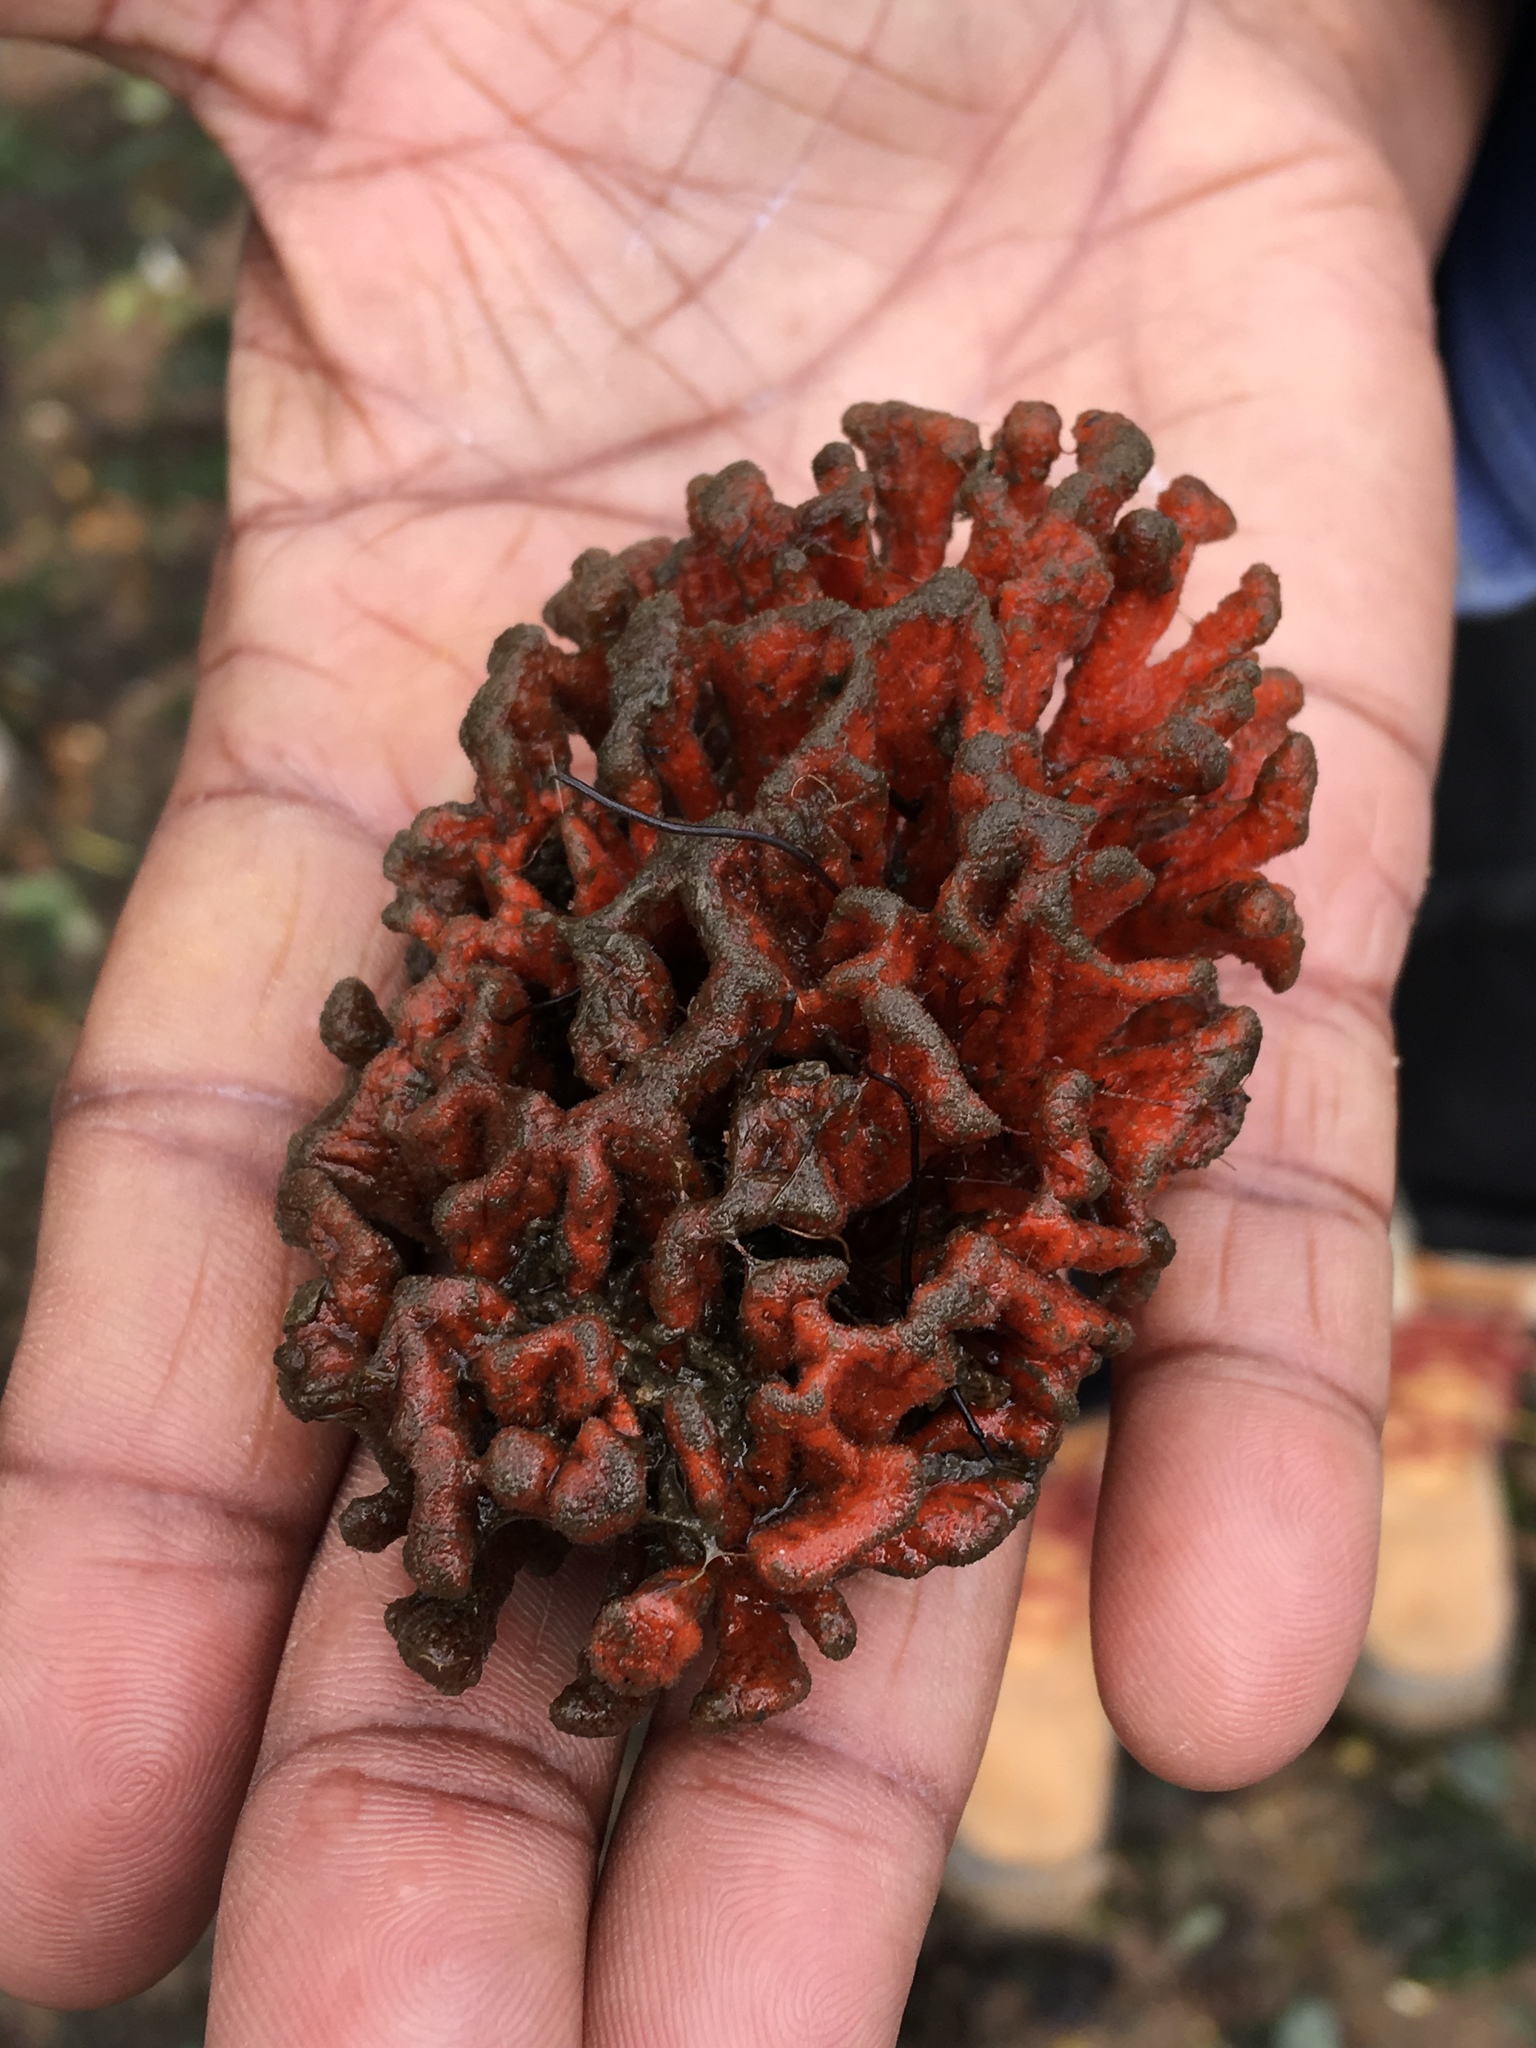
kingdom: Animalia
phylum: Porifera
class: Demospongiae
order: Poecilosclerida
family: Microcionidae
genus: Clathria
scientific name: Clathria prolifera
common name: Red beard sponge
